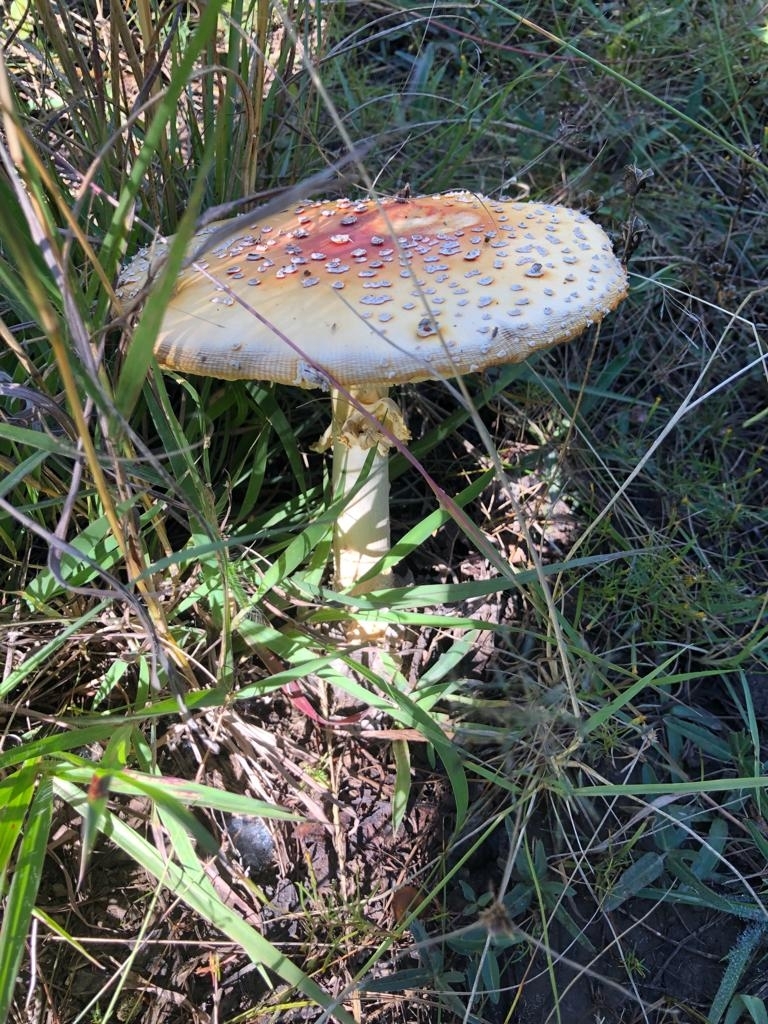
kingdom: Fungi
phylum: Basidiomycota
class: Agaricomycetes
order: Agaricales
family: Amanitaceae
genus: Amanita
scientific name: Amanita muscaria
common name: Fly agaric
